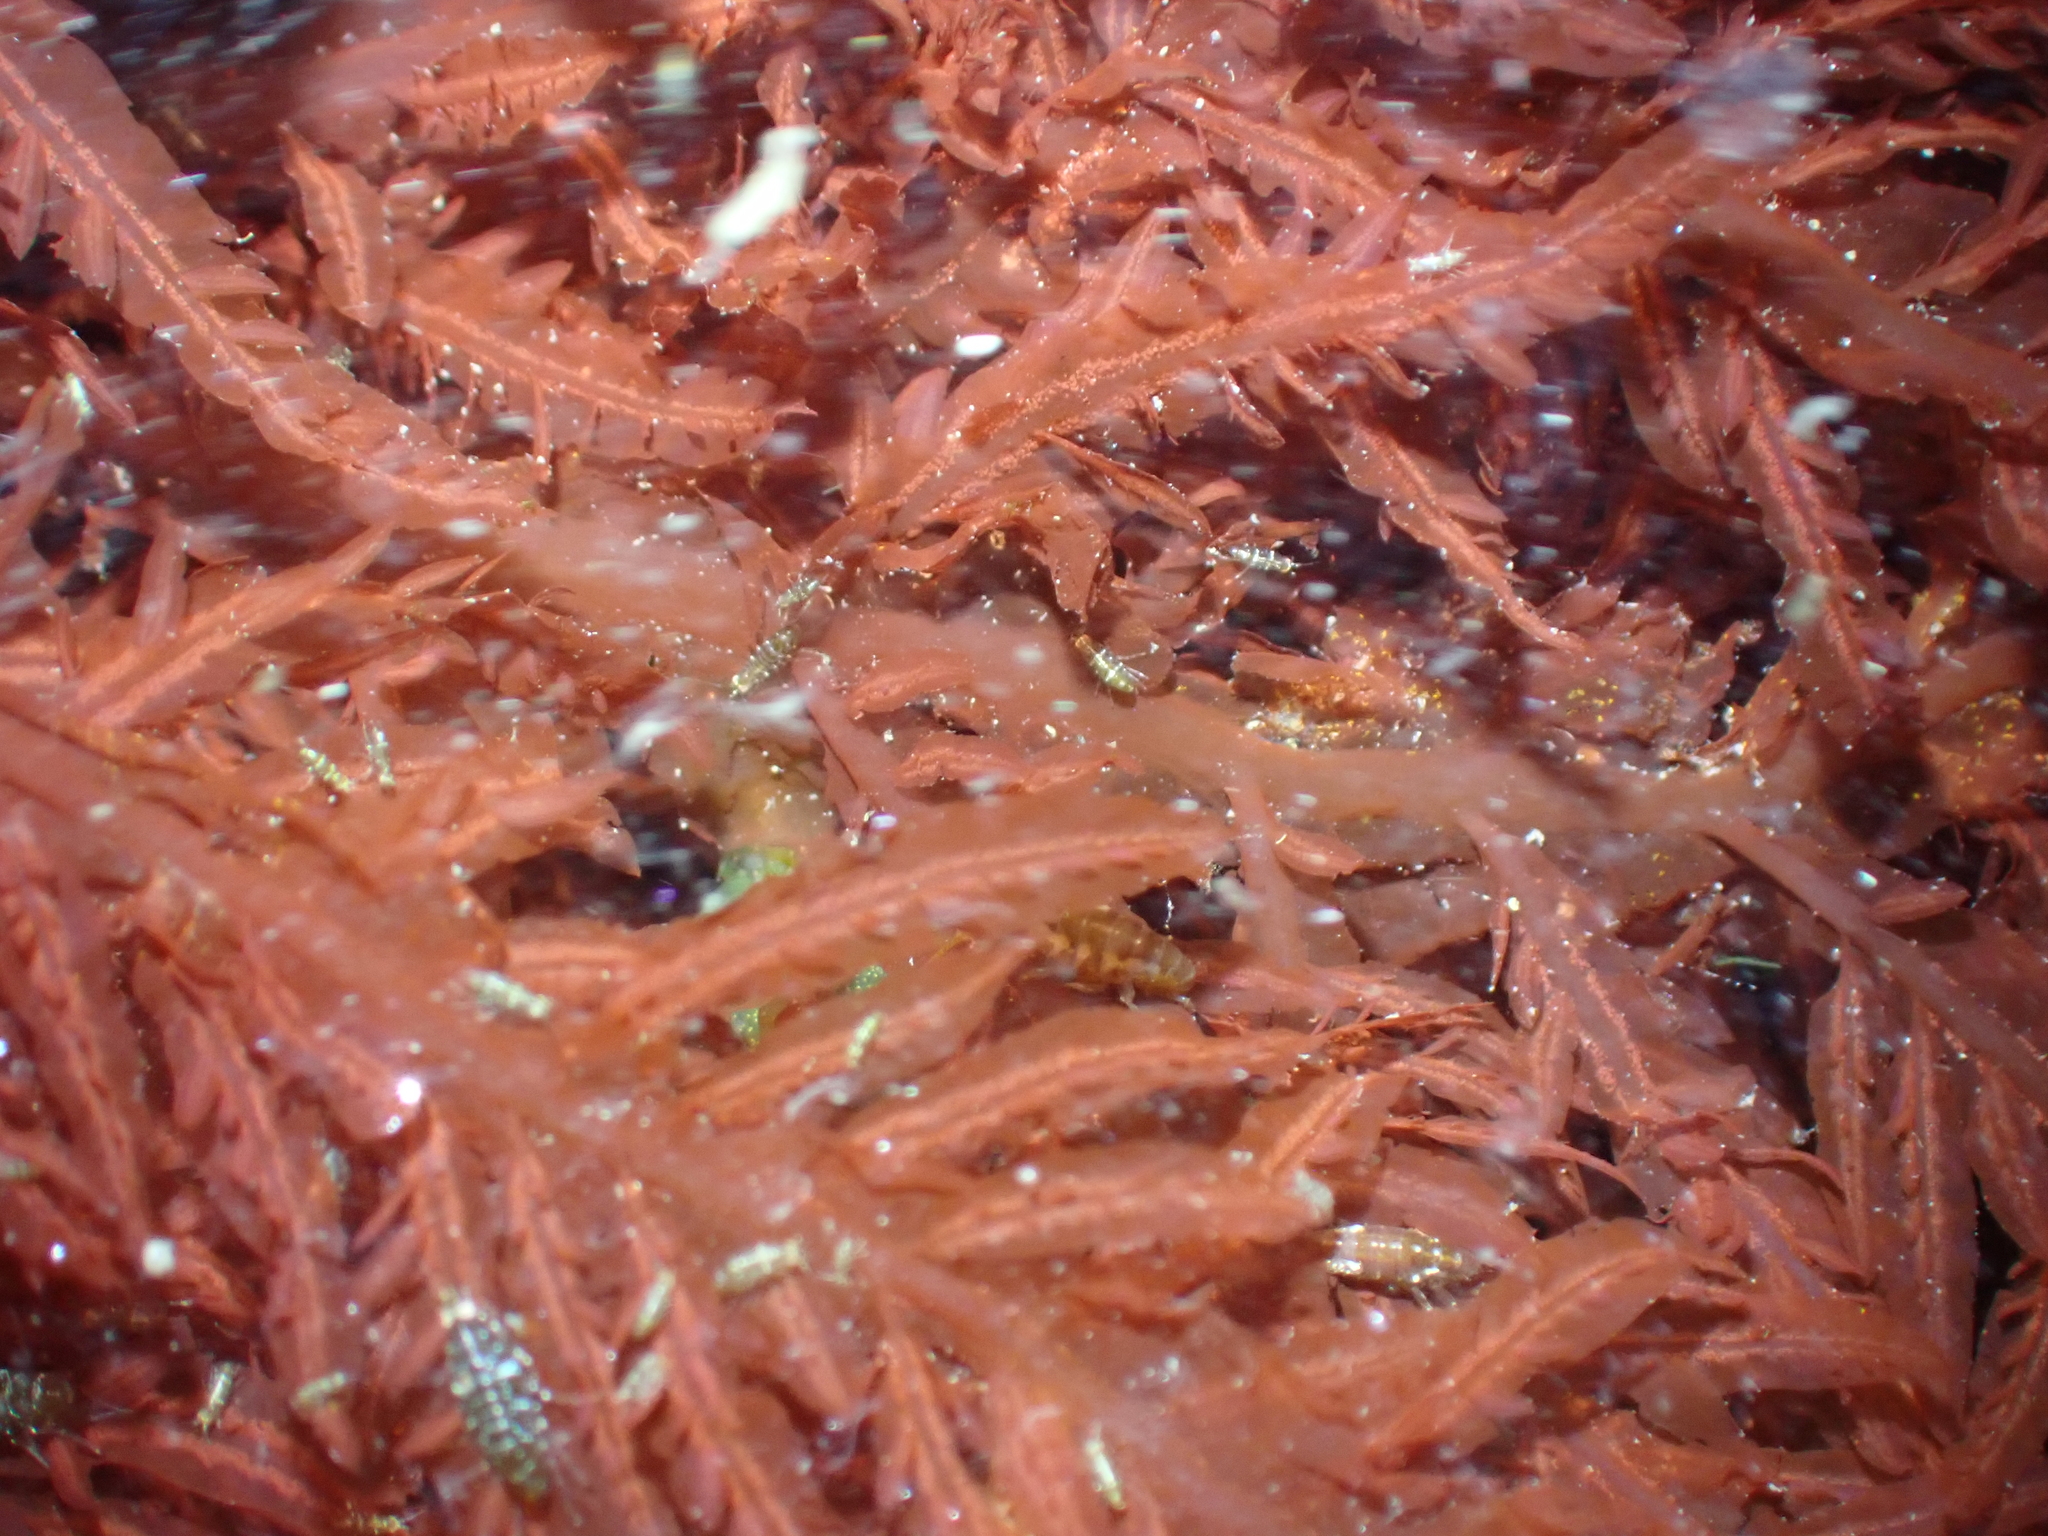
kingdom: Plantae
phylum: Rhodophyta
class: Florideophyceae
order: Ceramiales
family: Delesseriaceae
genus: Cumathamnion
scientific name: Cumathamnion decipiens
